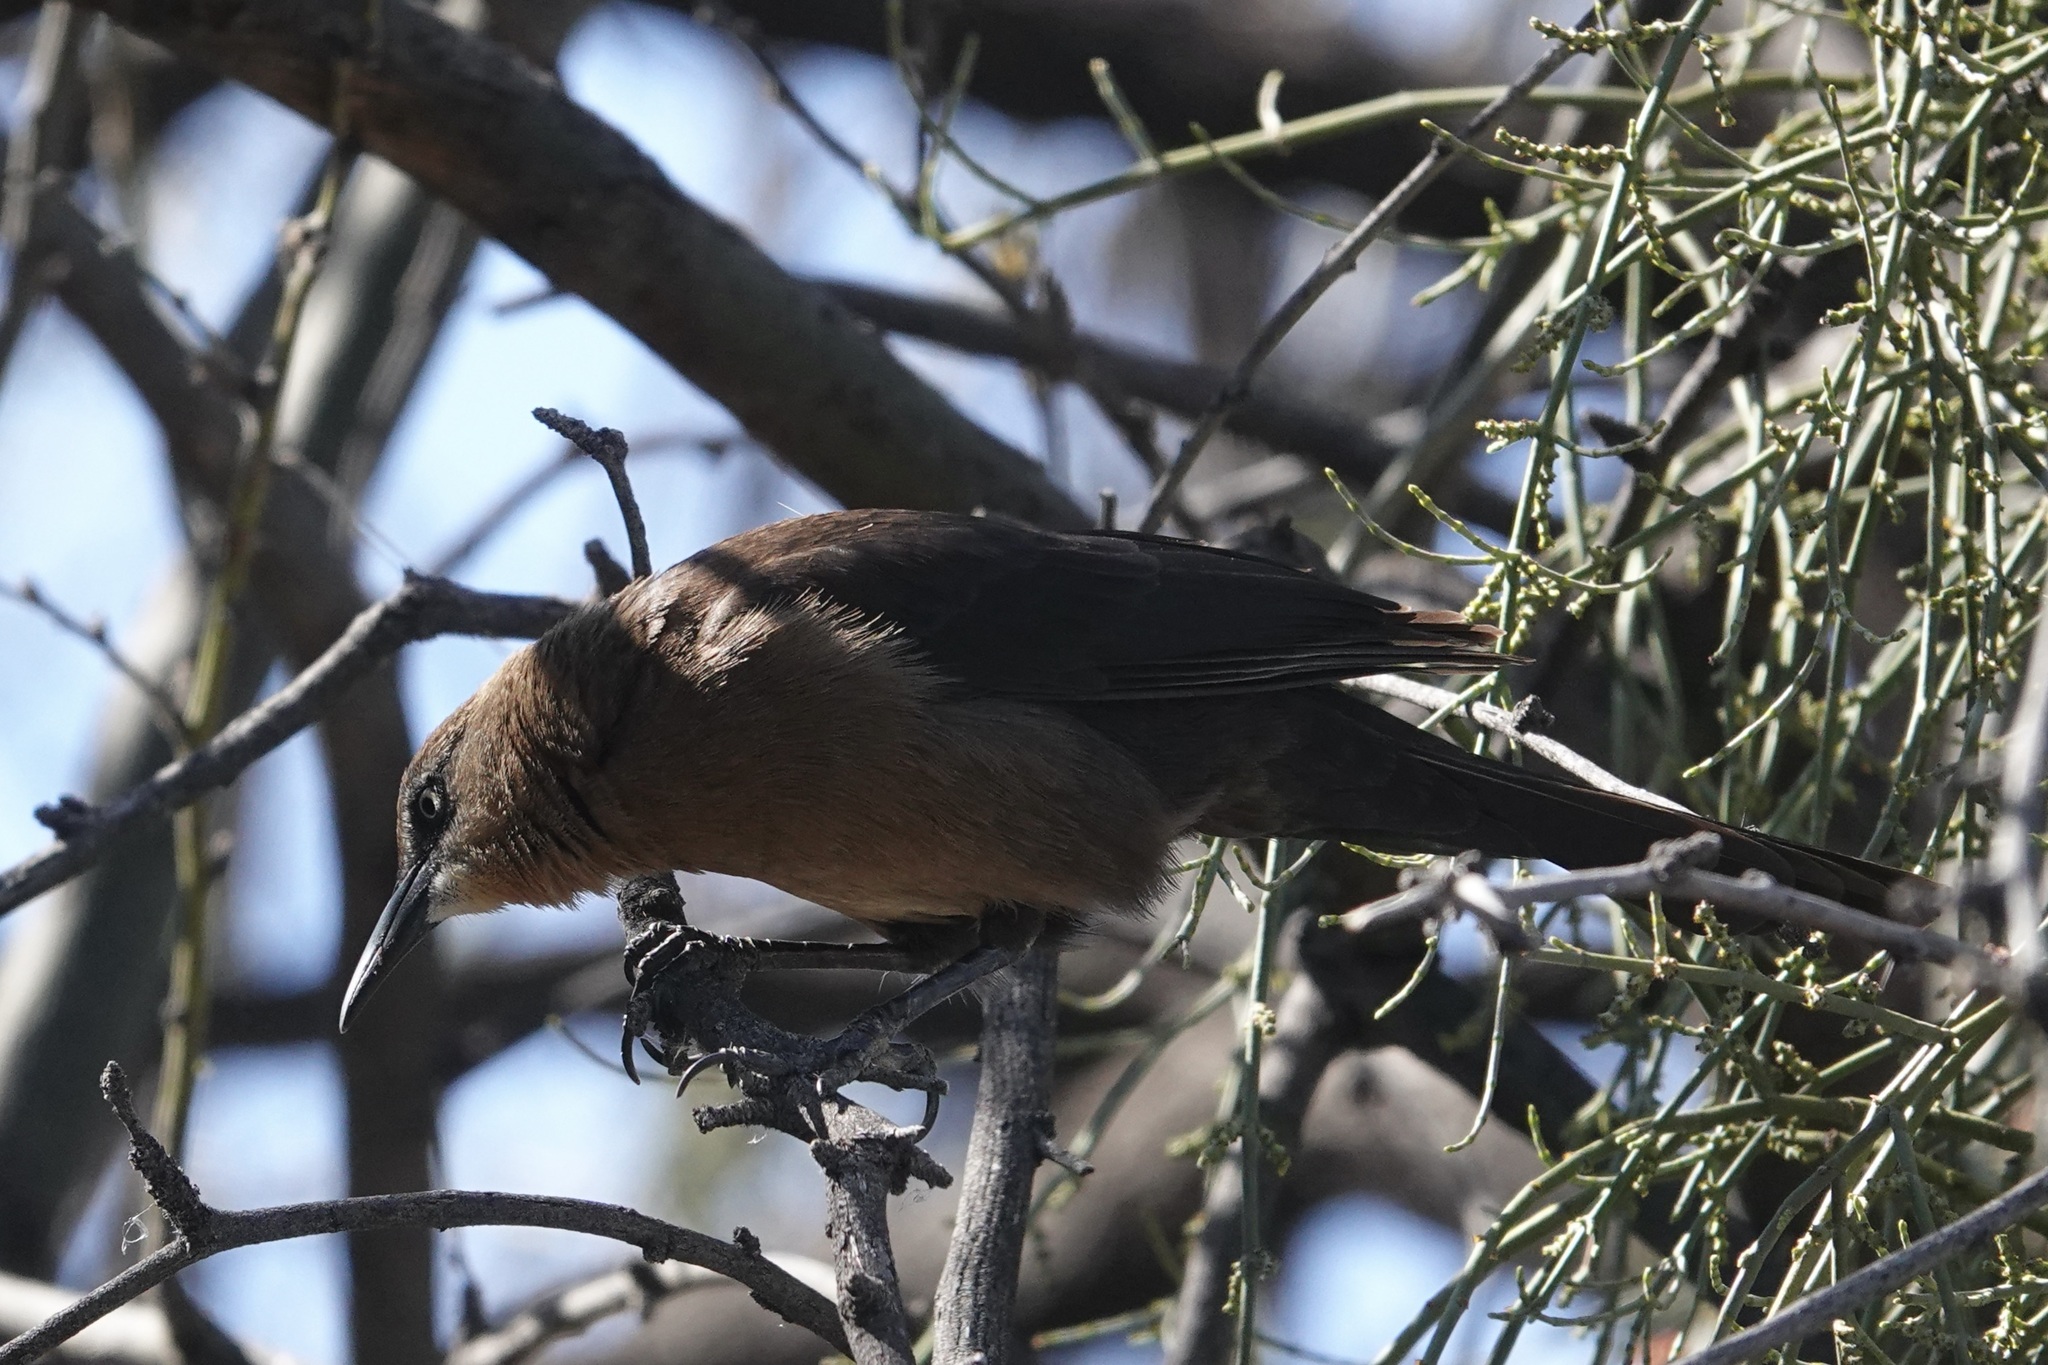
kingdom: Animalia
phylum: Chordata
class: Aves
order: Passeriformes
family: Icteridae
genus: Quiscalus
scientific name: Quiscalus mexicanus
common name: Great-tailed grackle
